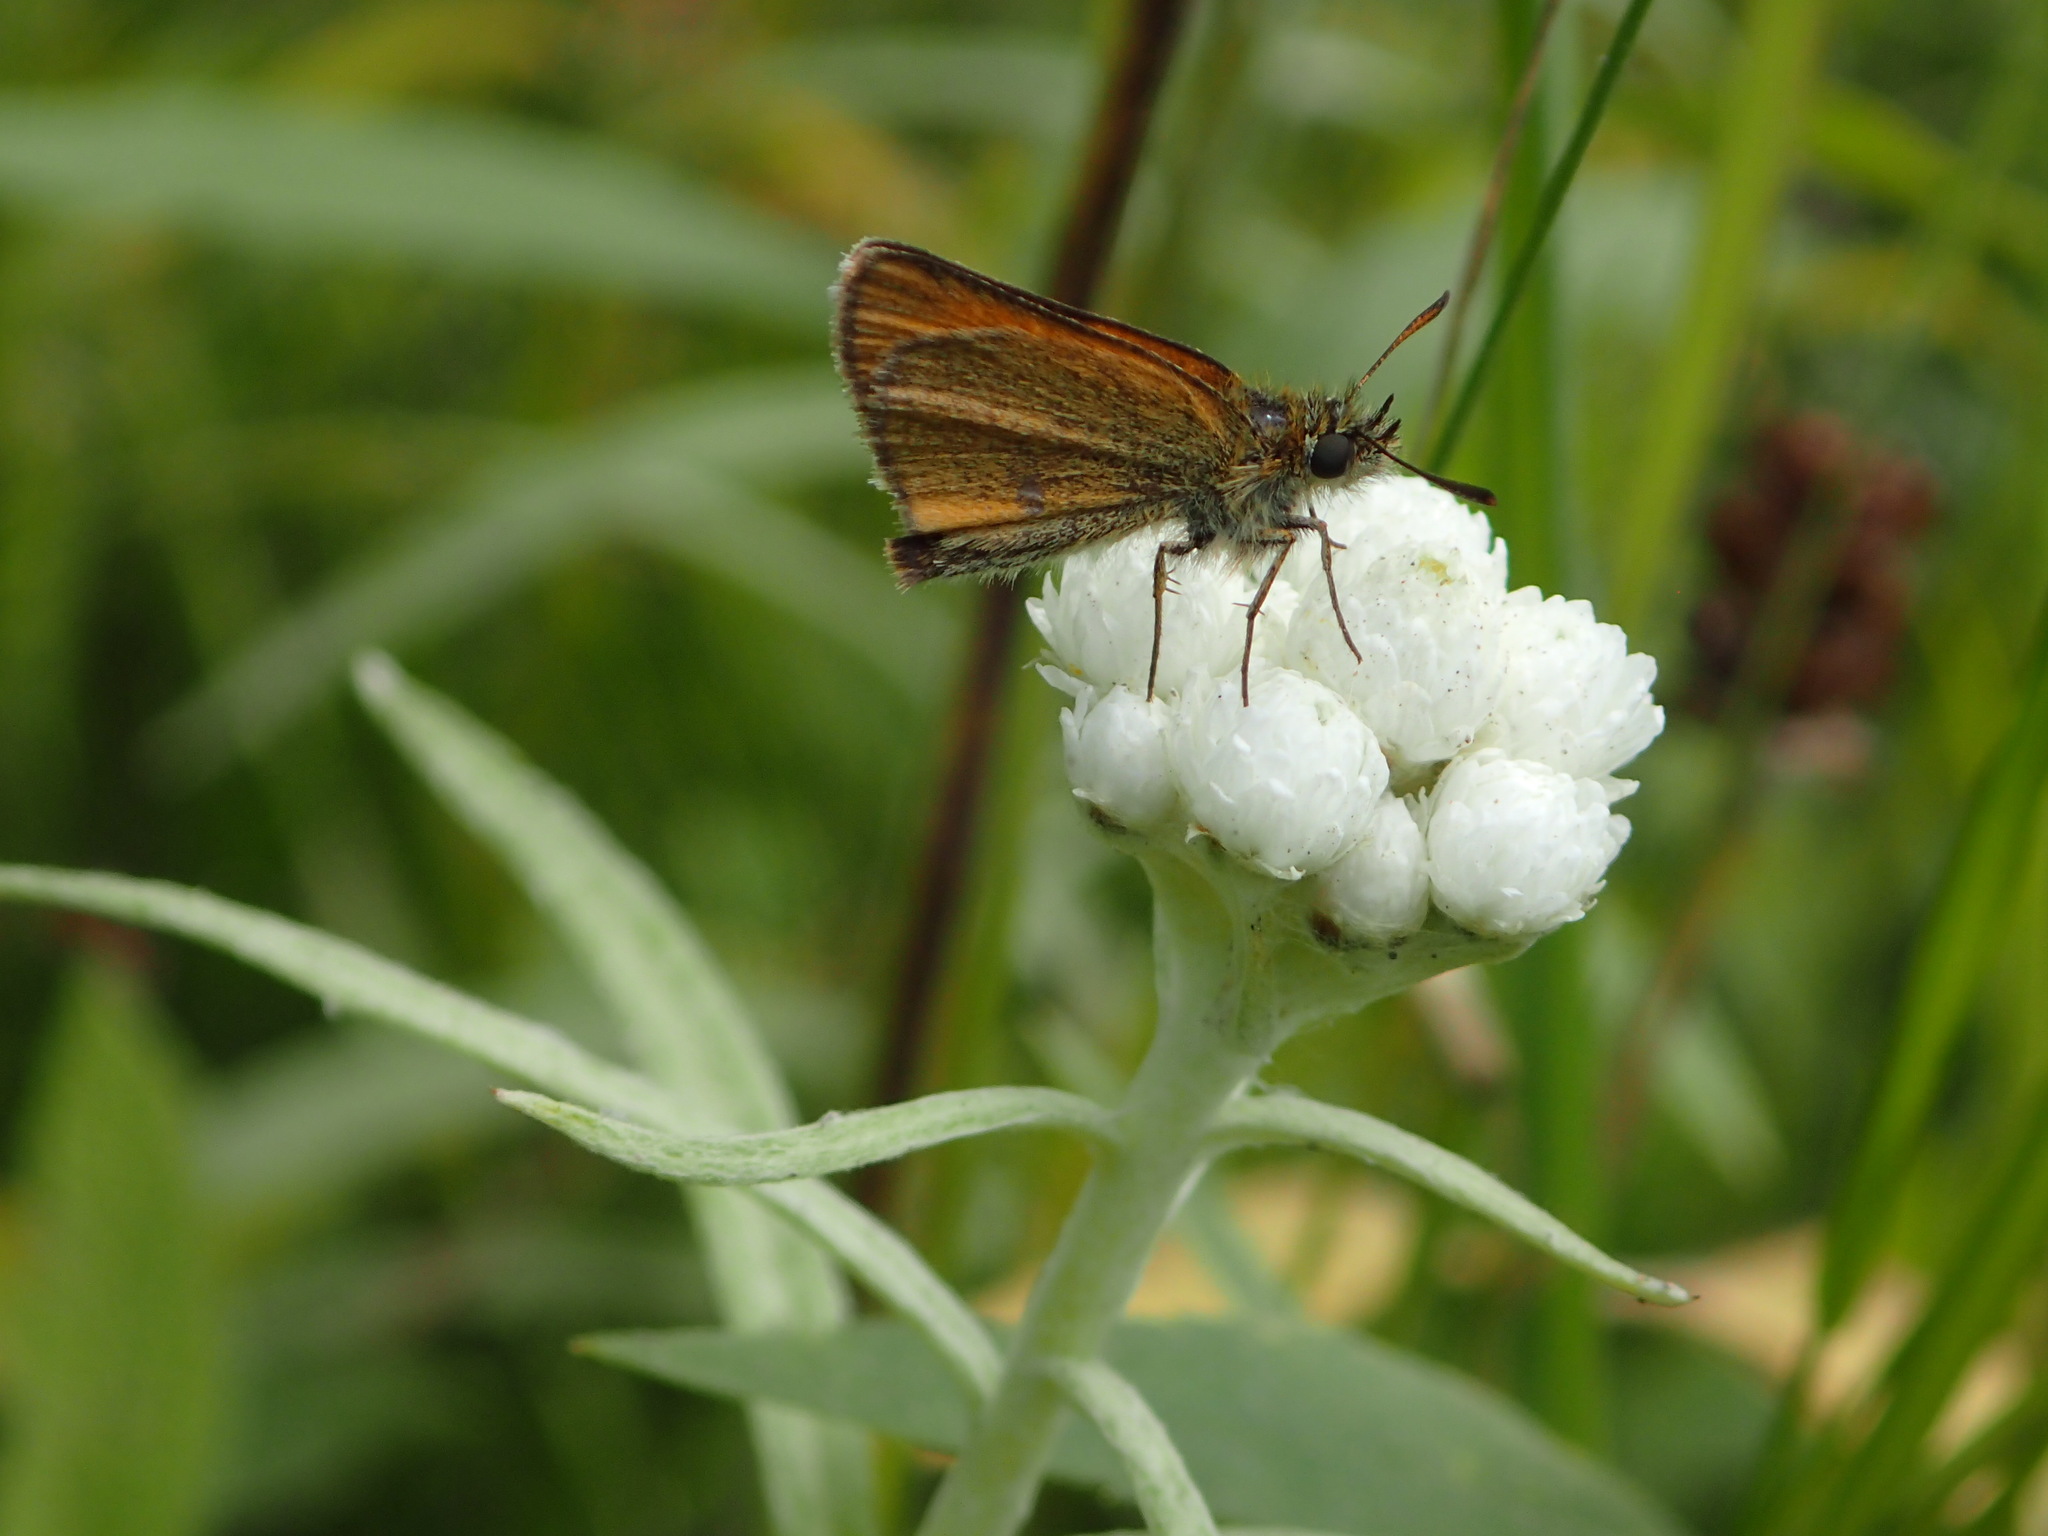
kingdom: Animalia
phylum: Arthropoda
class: Insecta
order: Lepidoptera
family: Hesperiidae
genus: Thymelicus
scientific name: Thymelicus lineola
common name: Essex skipper
